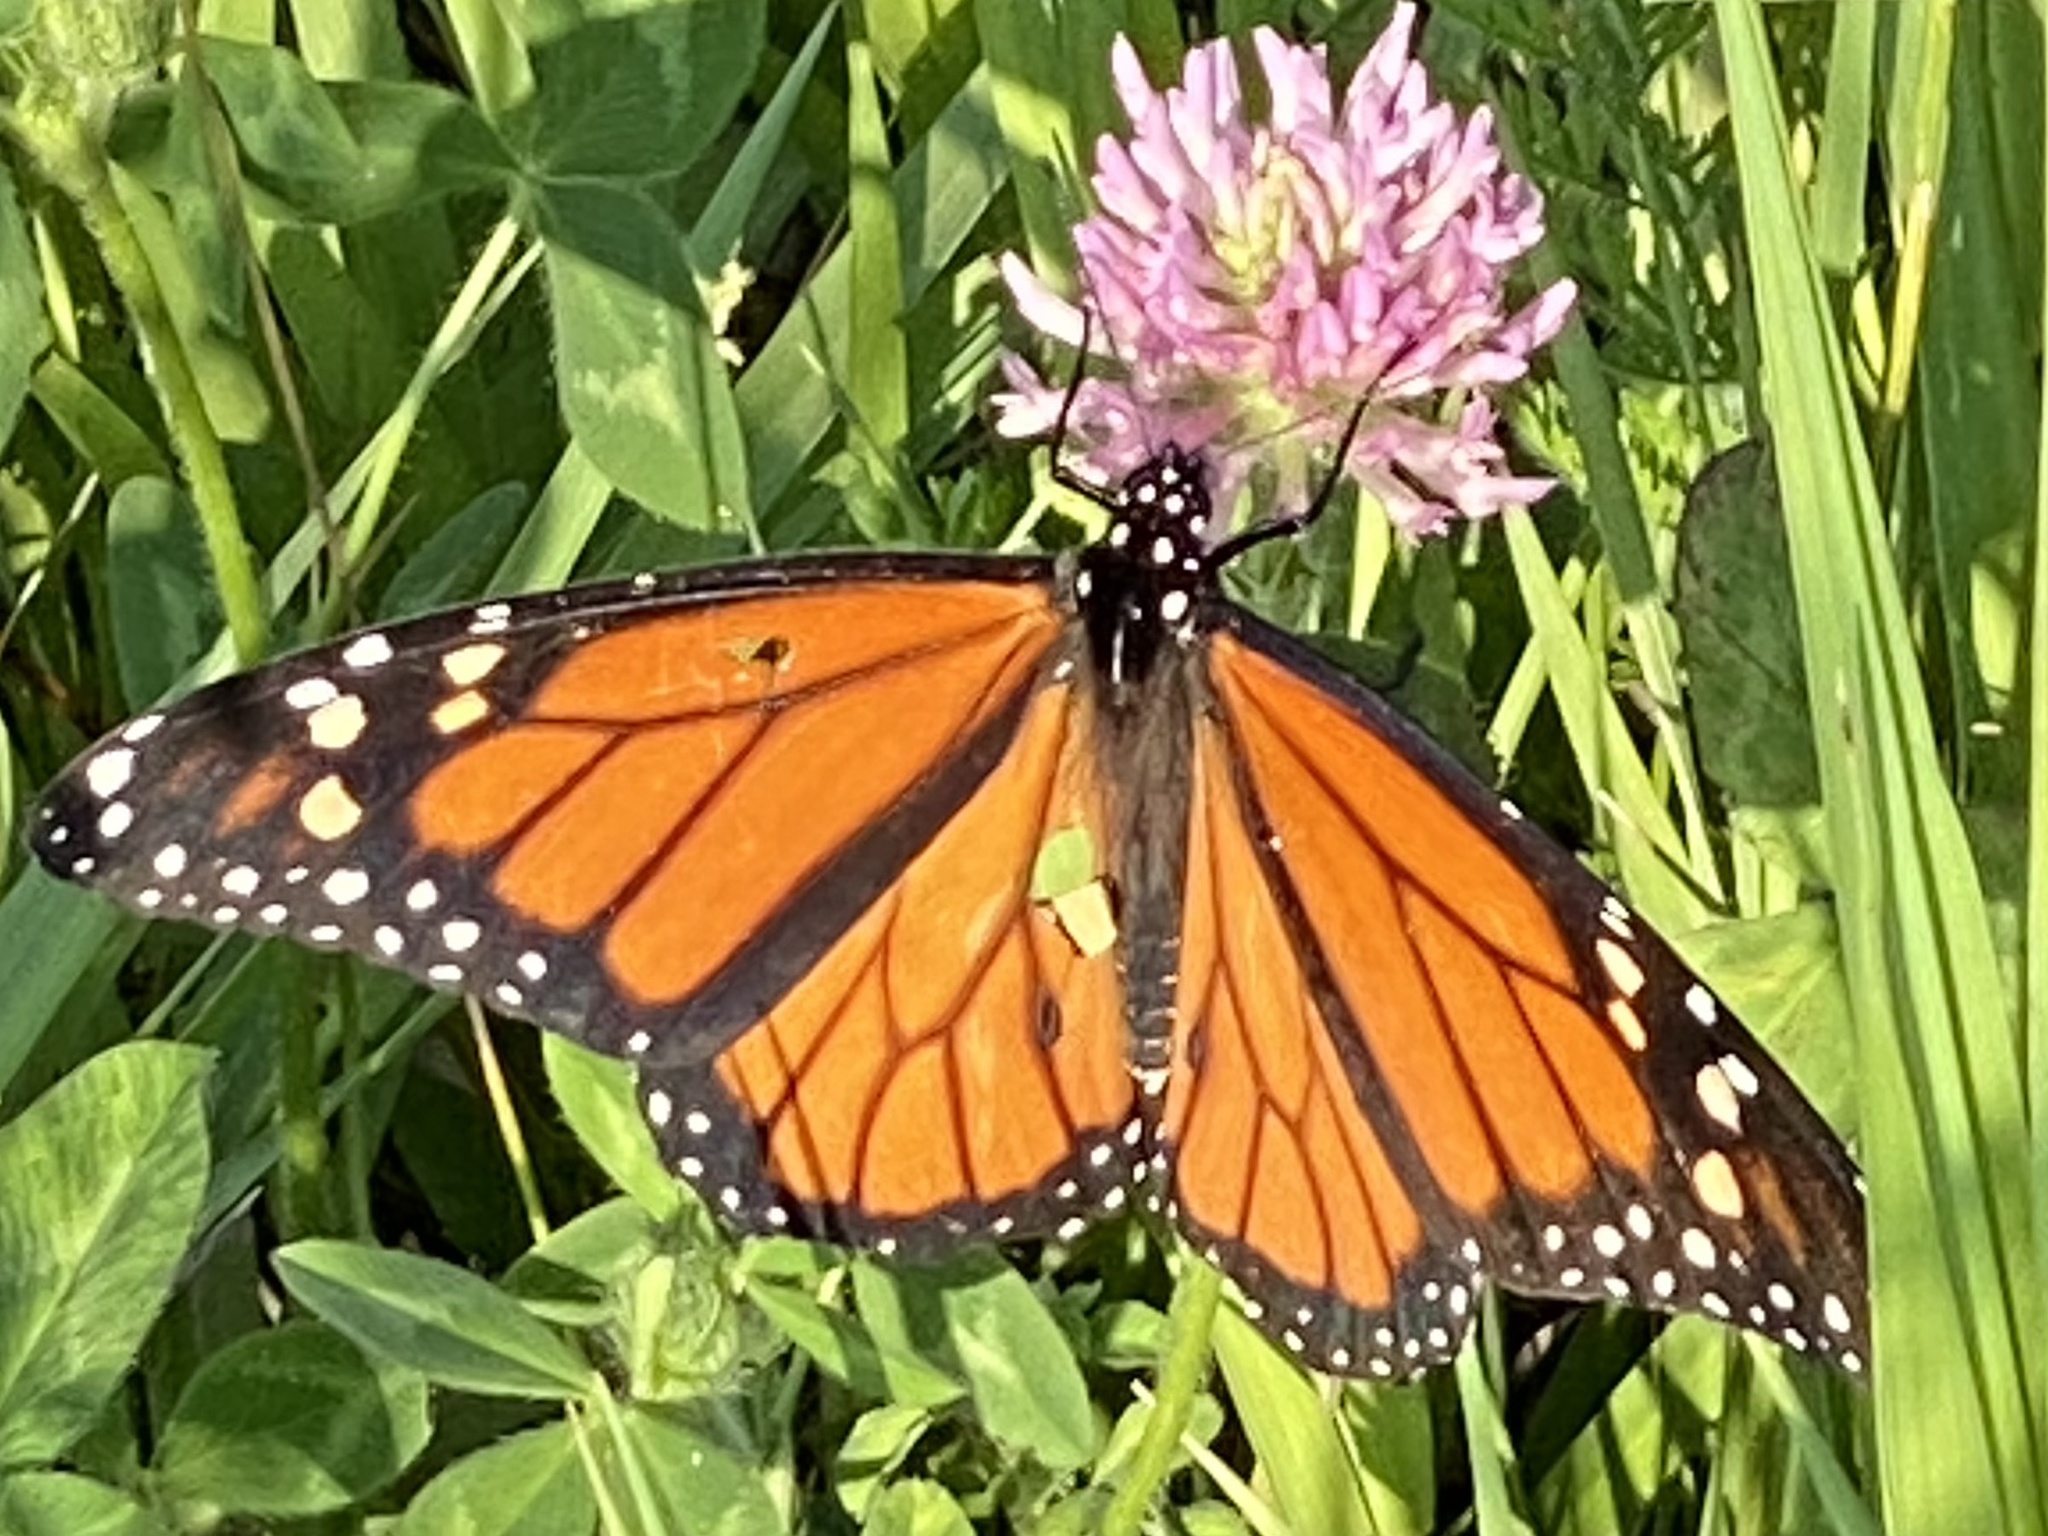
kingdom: Animalia
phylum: Arthropoda
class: Insecta
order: Lepidoptera
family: Nymphalidae
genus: Danaus
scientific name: Danaus plexippus
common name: Monarch
